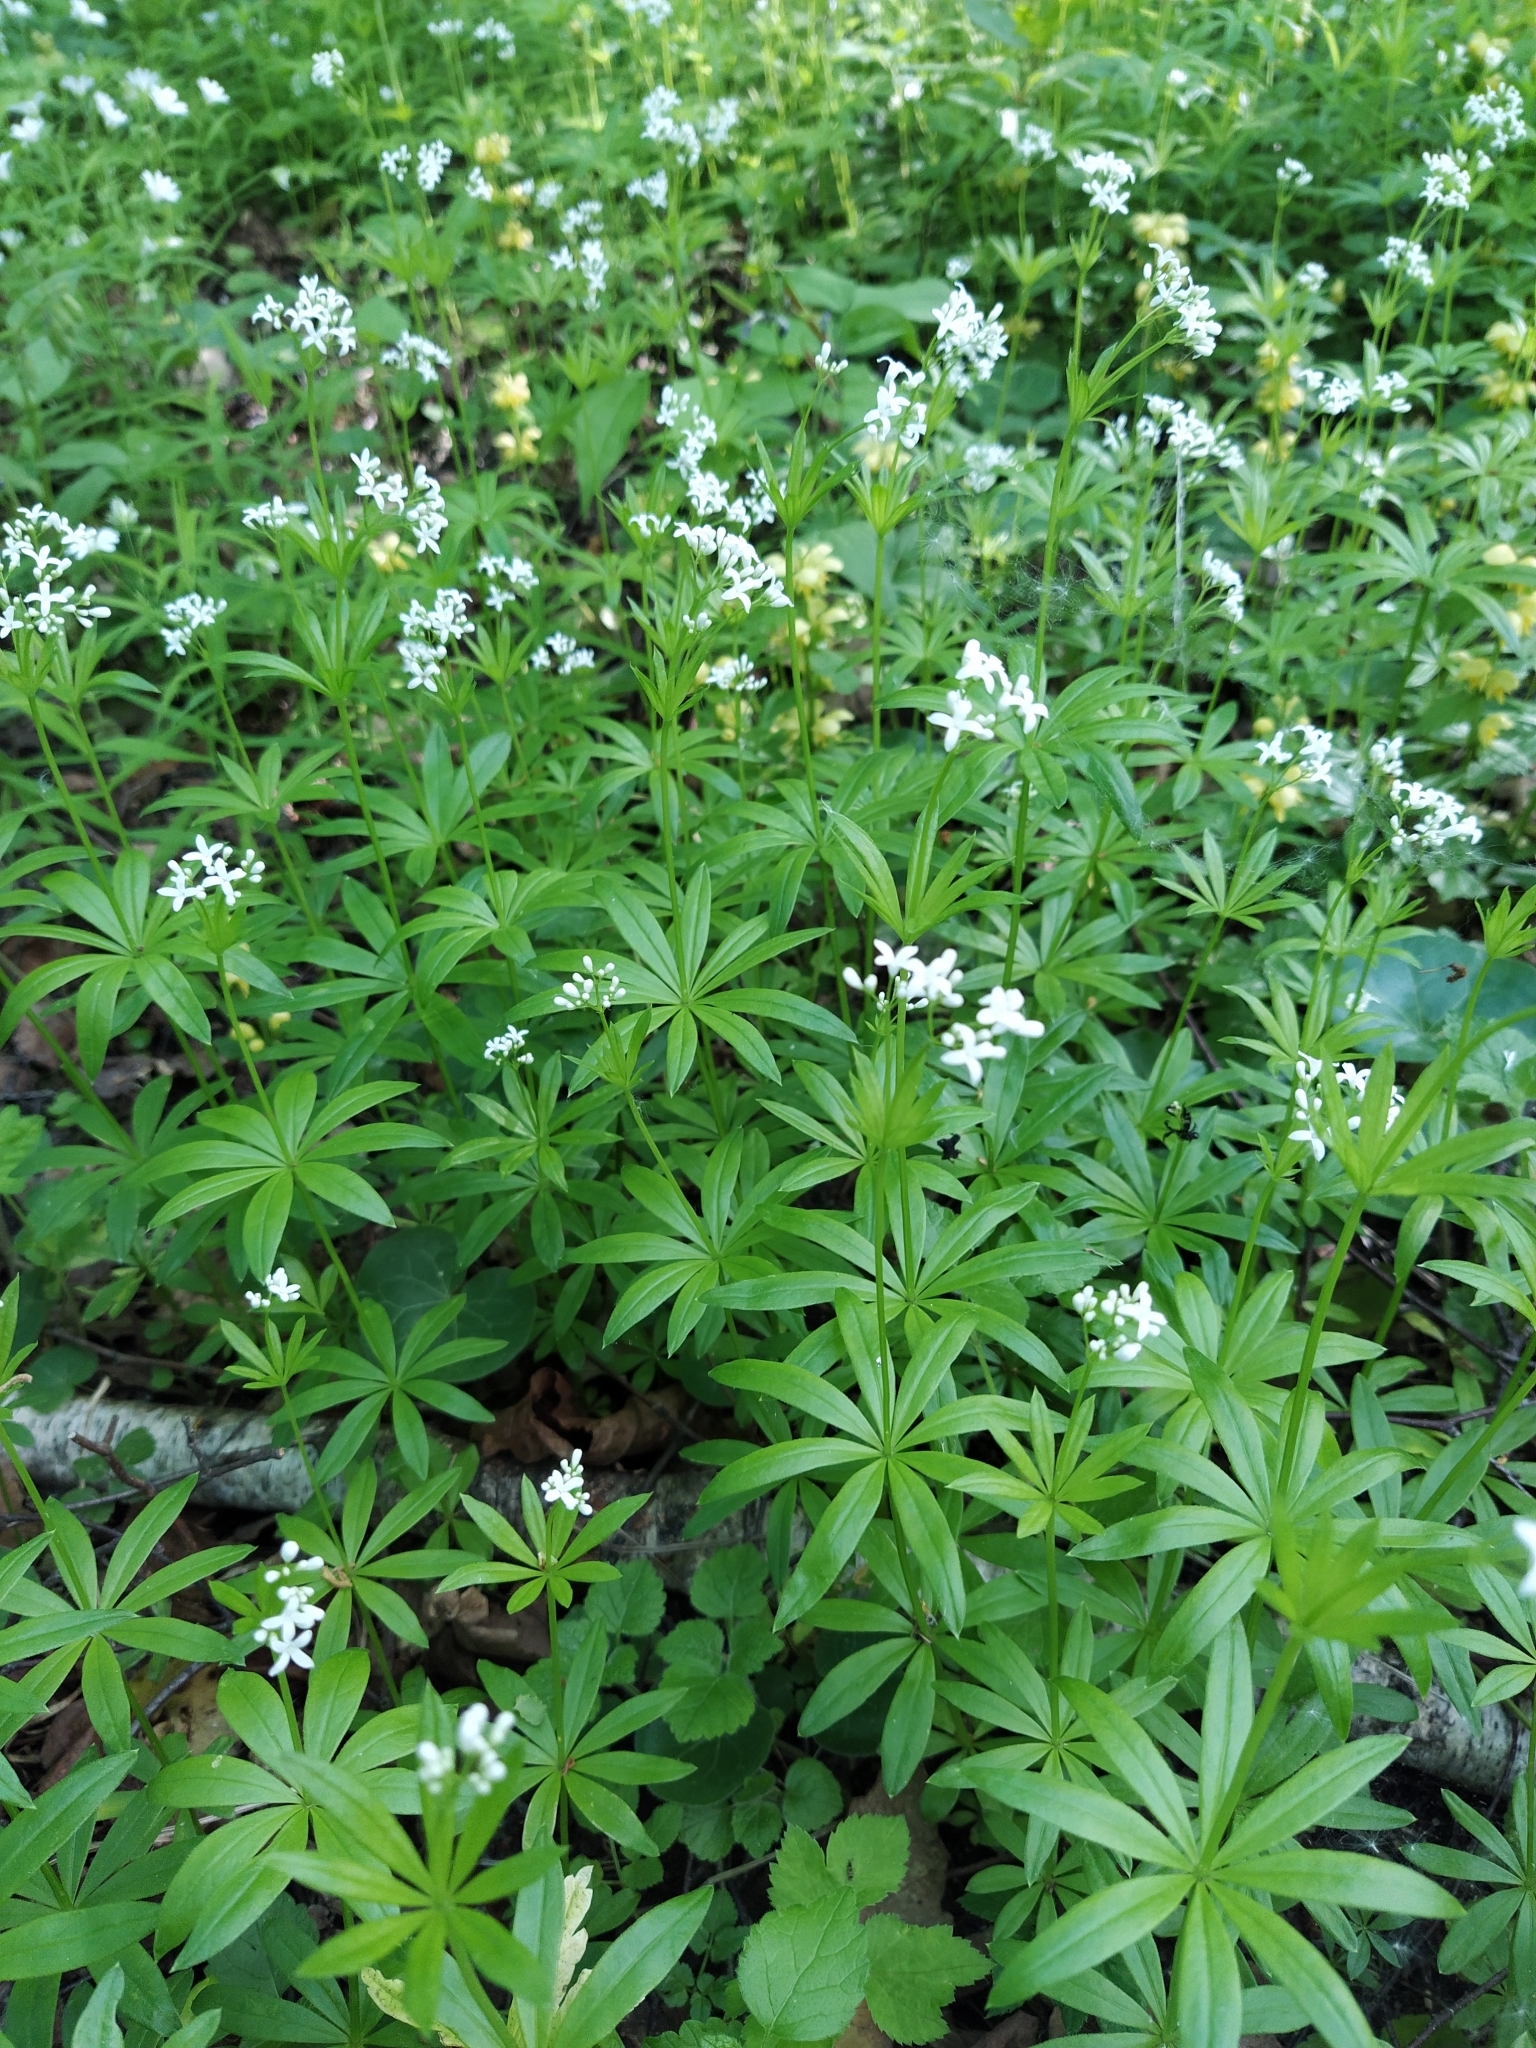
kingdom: Plantae
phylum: Tracheophyta
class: Magnoliopsida
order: Gentianales
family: Rubiaceae
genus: Galium
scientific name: Galium odoratum
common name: Sweet woodruff
